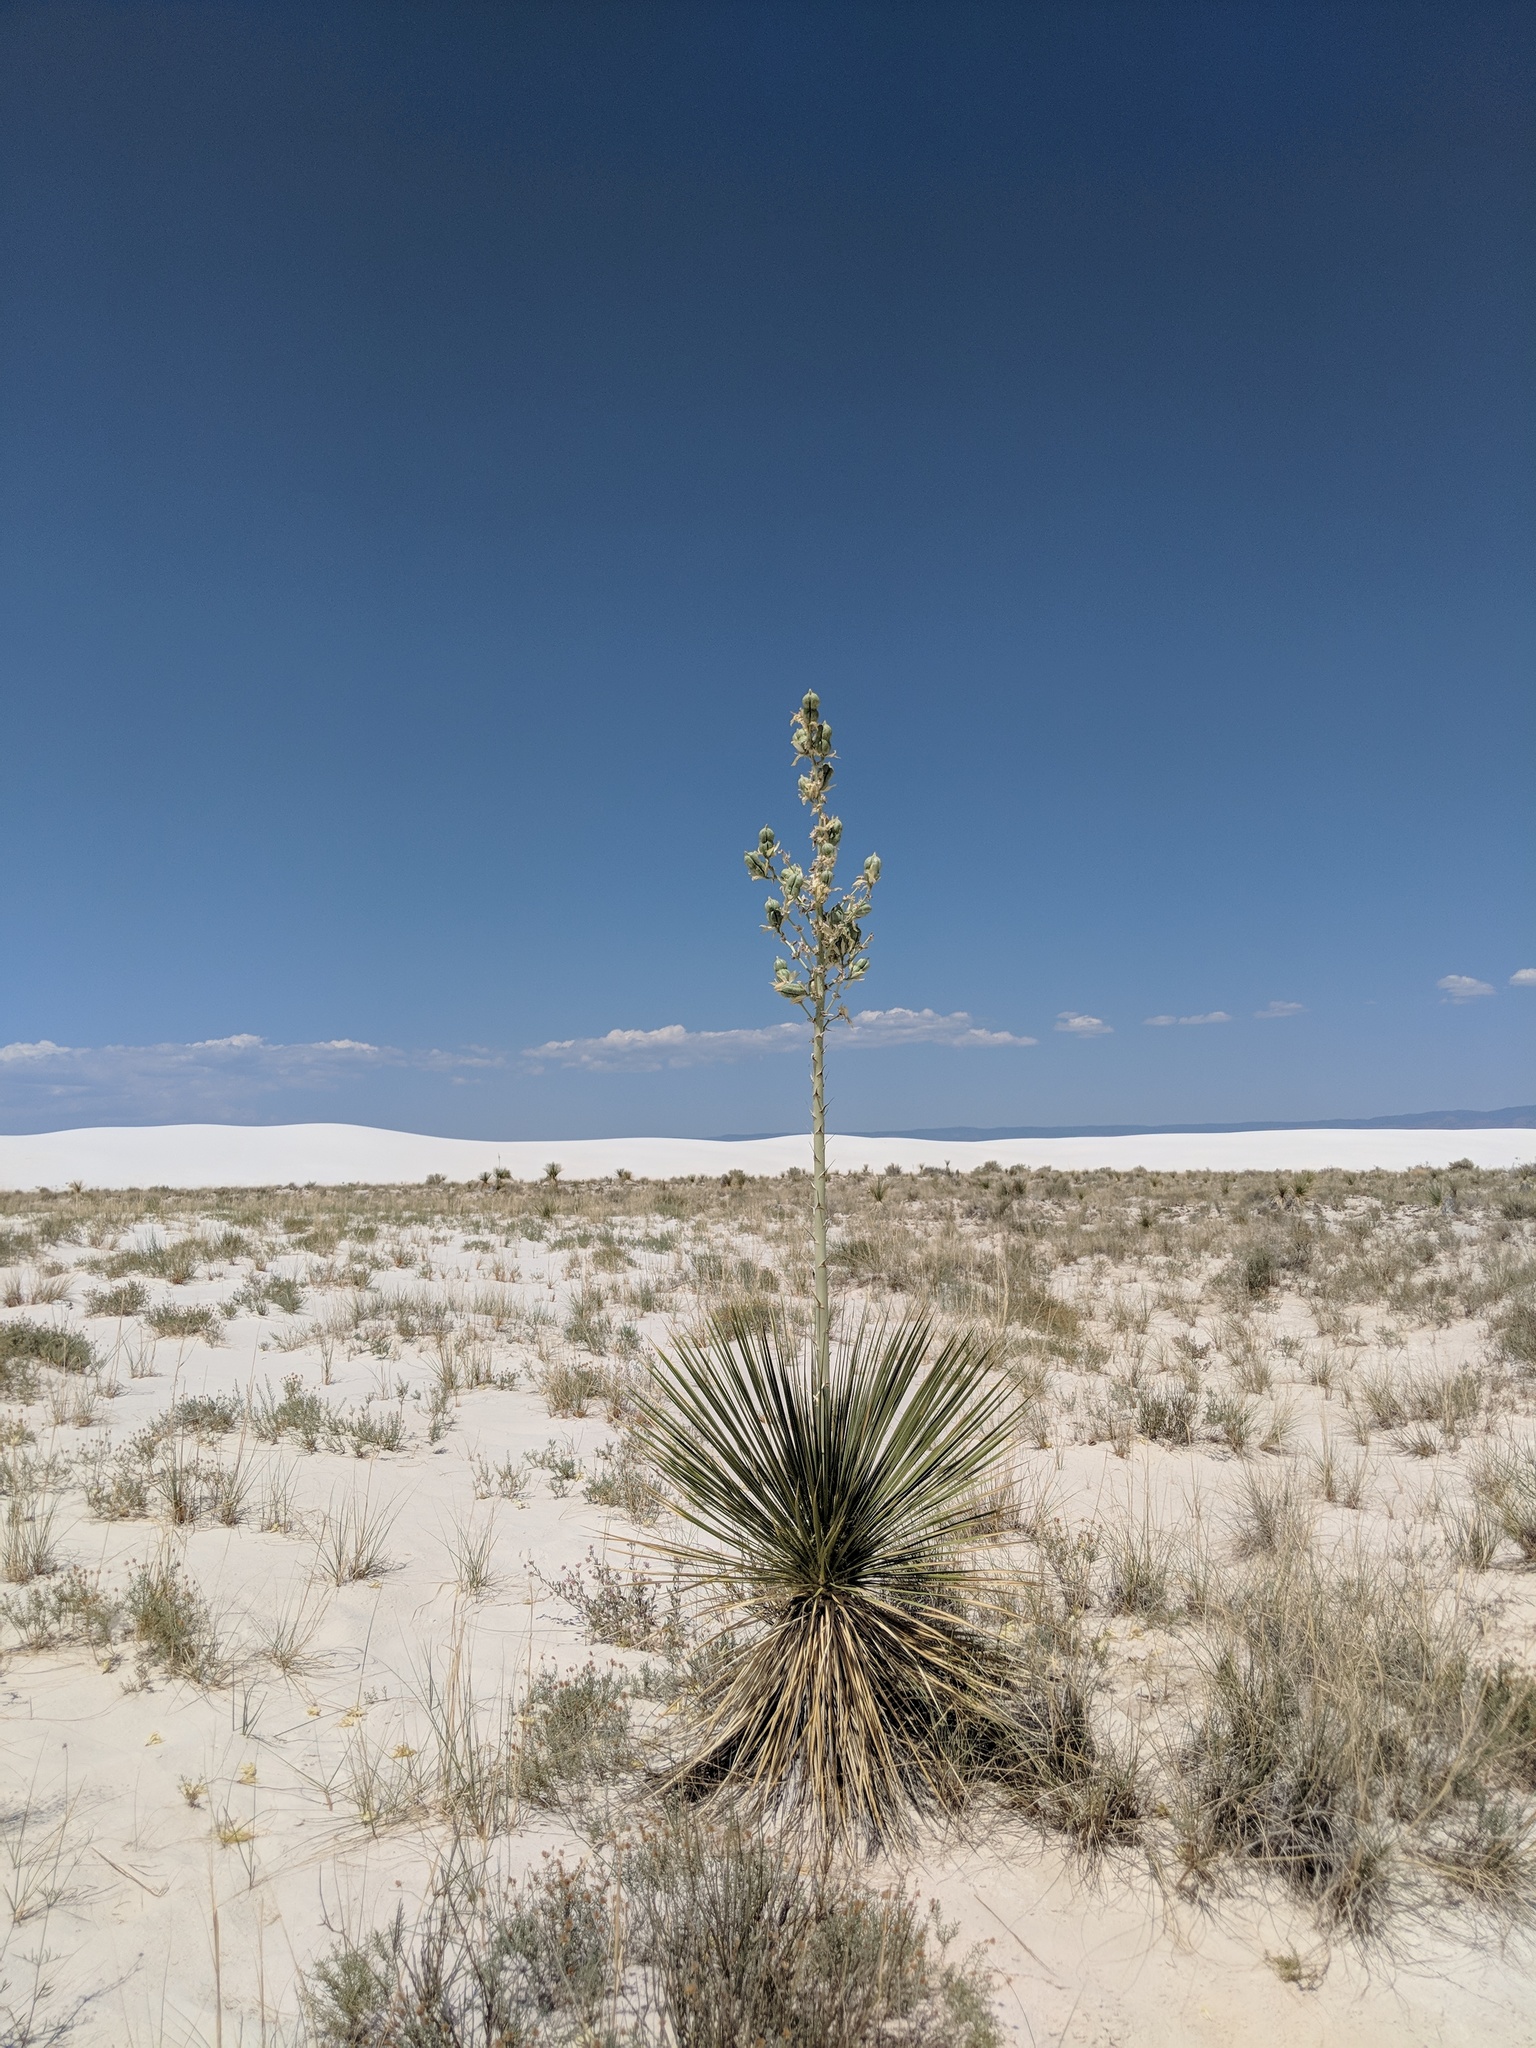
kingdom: Plantae
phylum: Tracheophyta
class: Liliopsida
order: Asparagales
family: Asparagaceae
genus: Yucca
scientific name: Yucca elata
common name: Palmella
